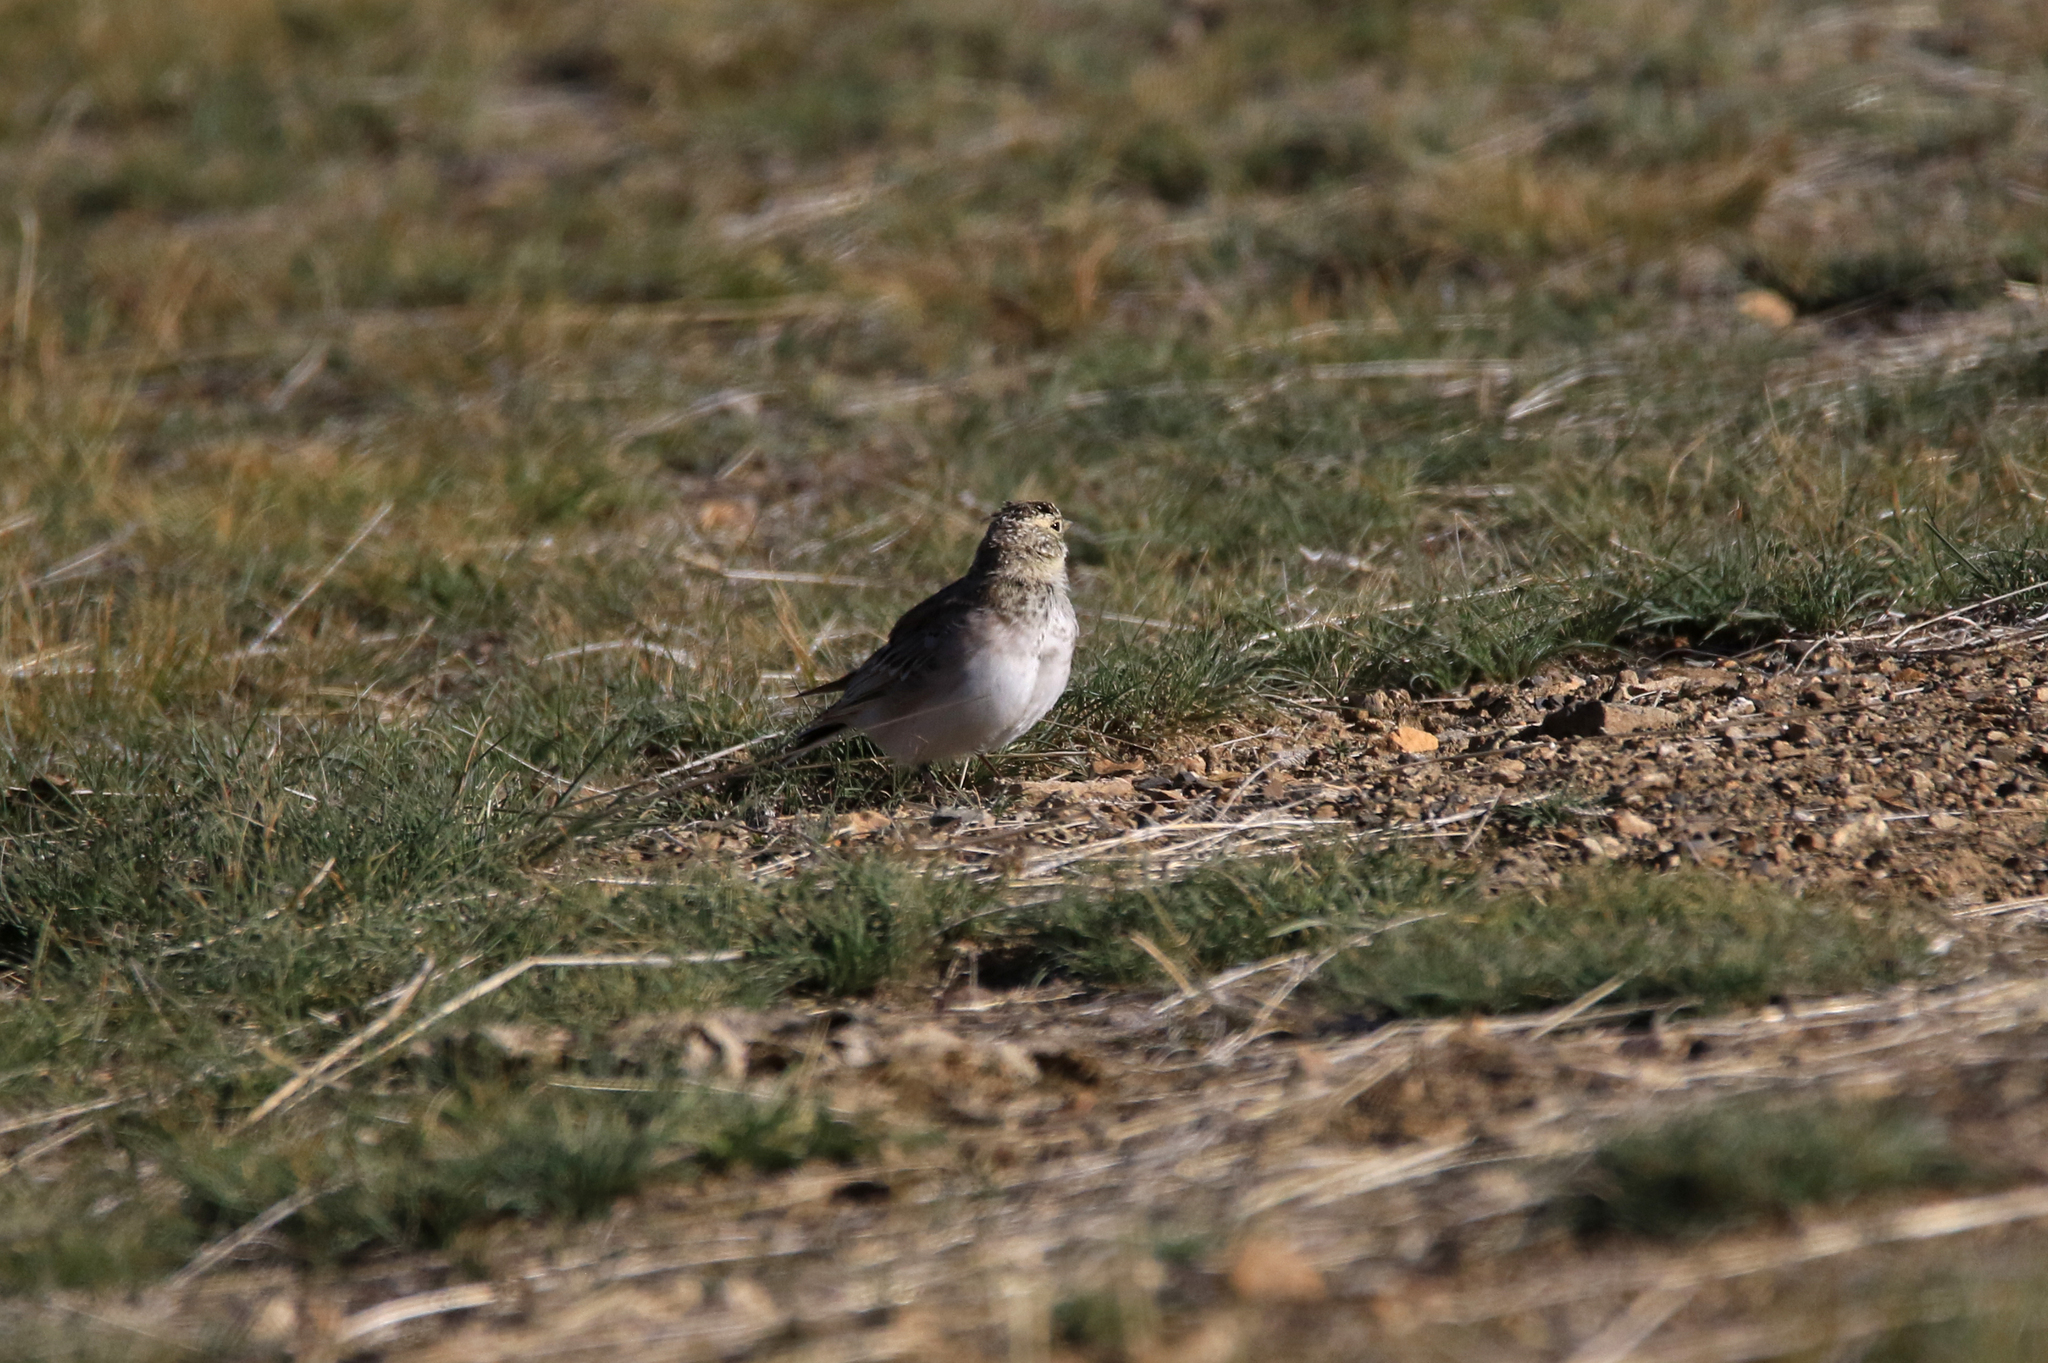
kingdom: Animalia
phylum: Chordata
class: Aves
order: Passeriformes
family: Alaudidae
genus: Eremophila
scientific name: Eremophila alpestris
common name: Horned lark
